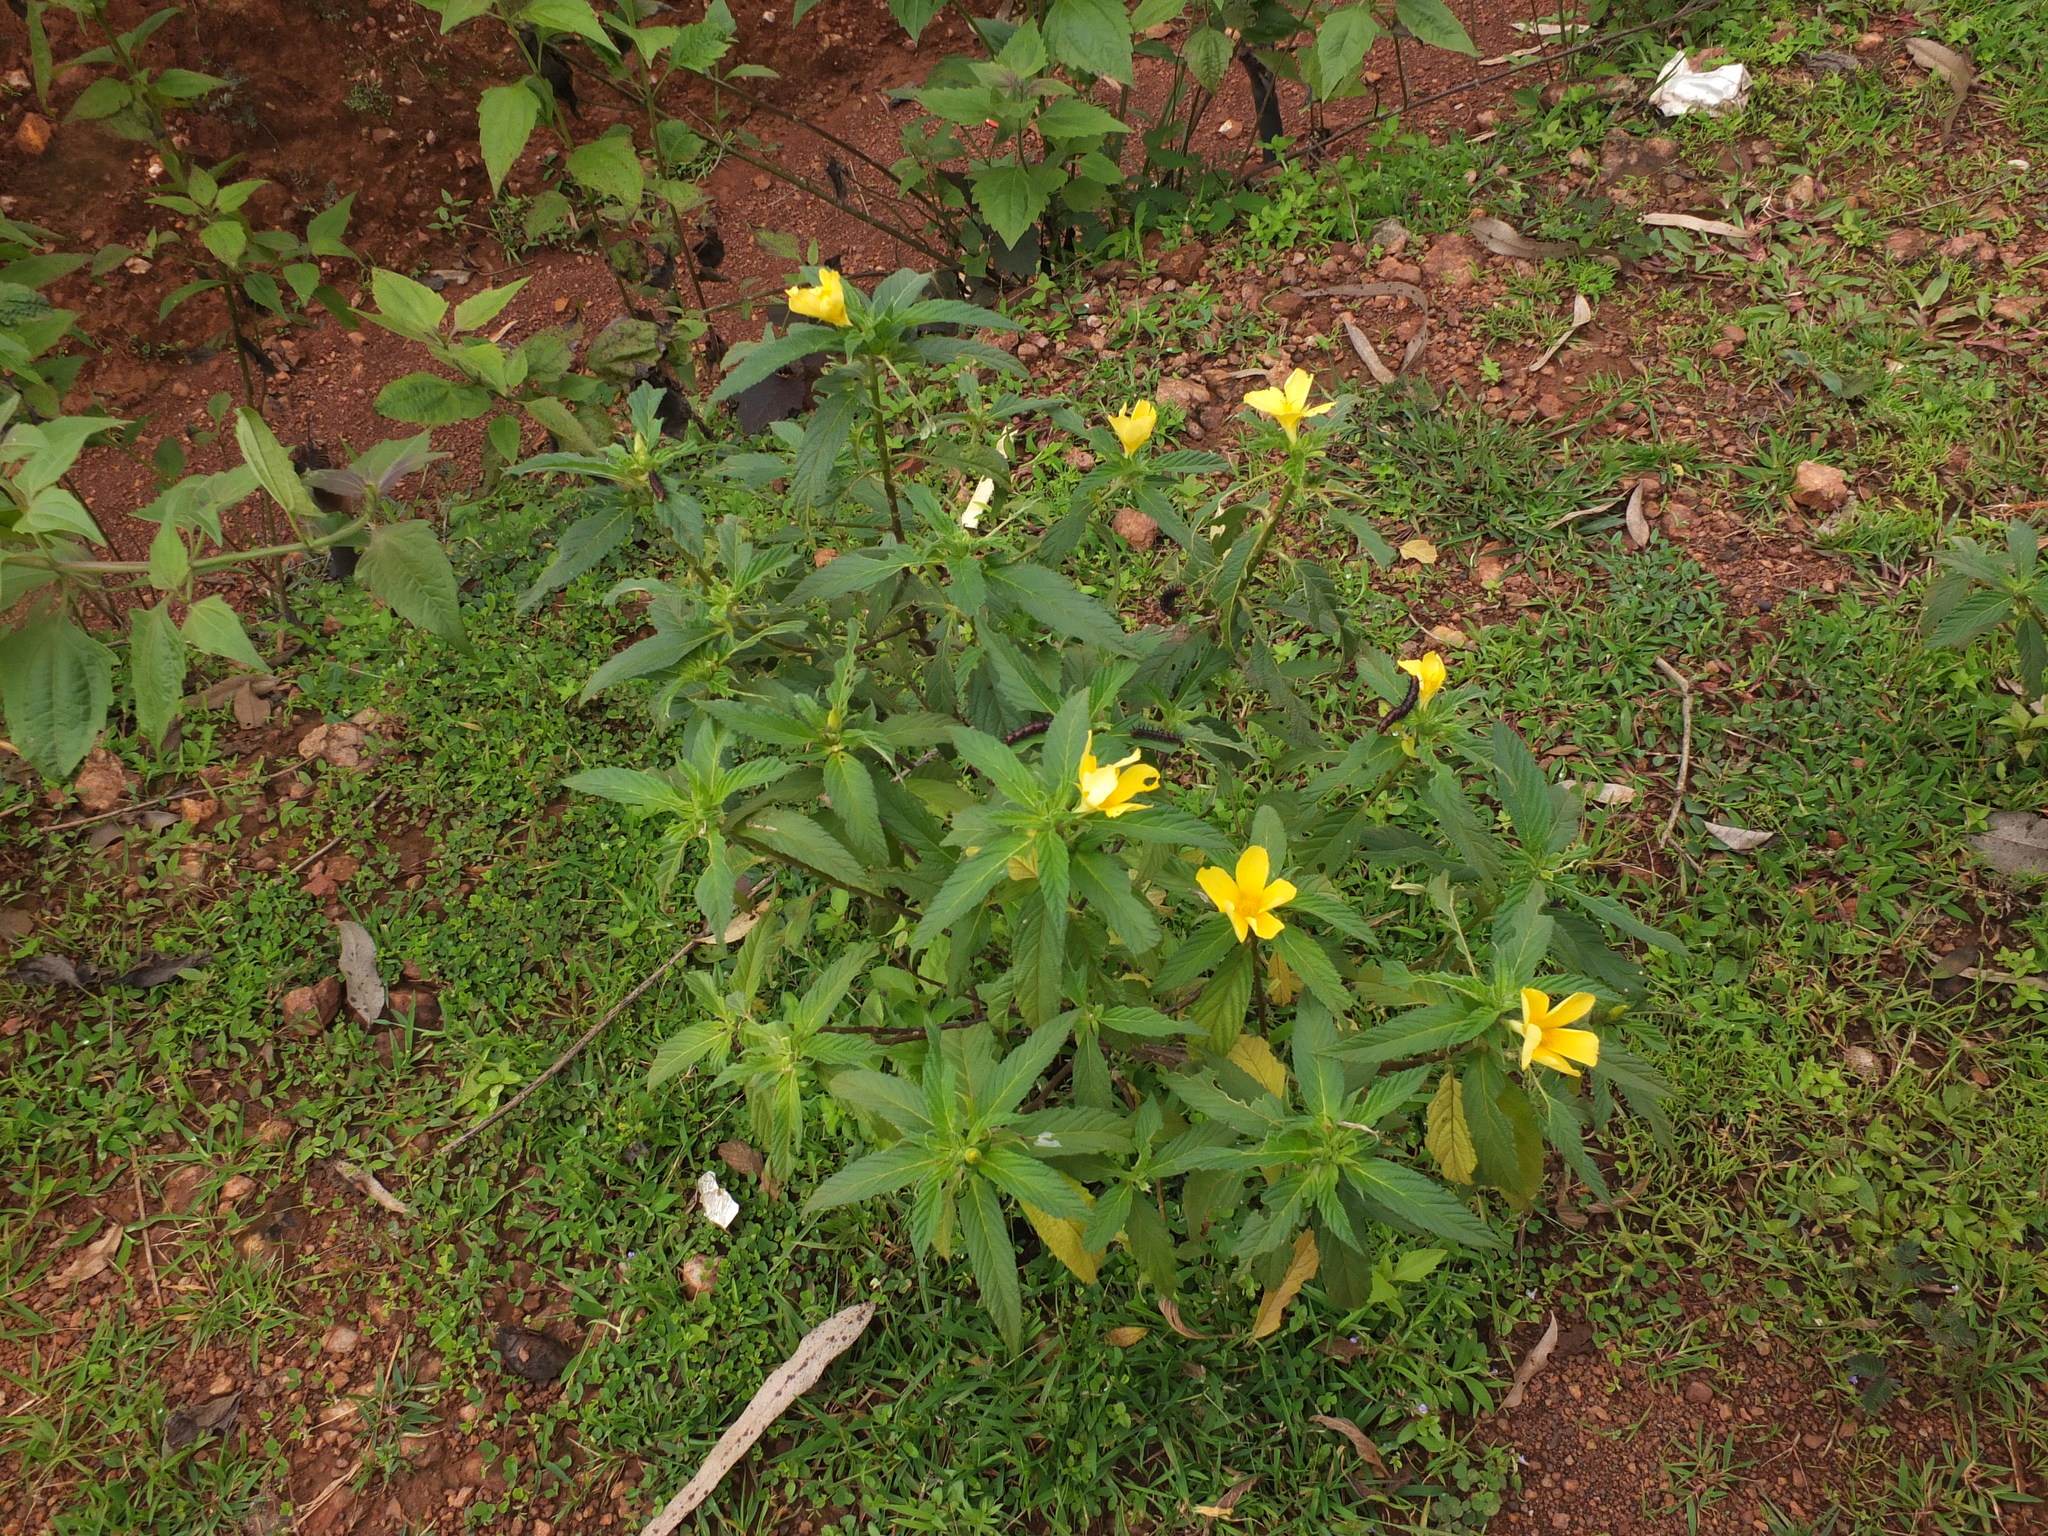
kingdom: Plantae
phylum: Tracheophyta
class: Magnoliopsida
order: Malpighiales
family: Turneraceae
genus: Turnera
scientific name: Turnera ulmifolia
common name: Ramgoat dashalong
